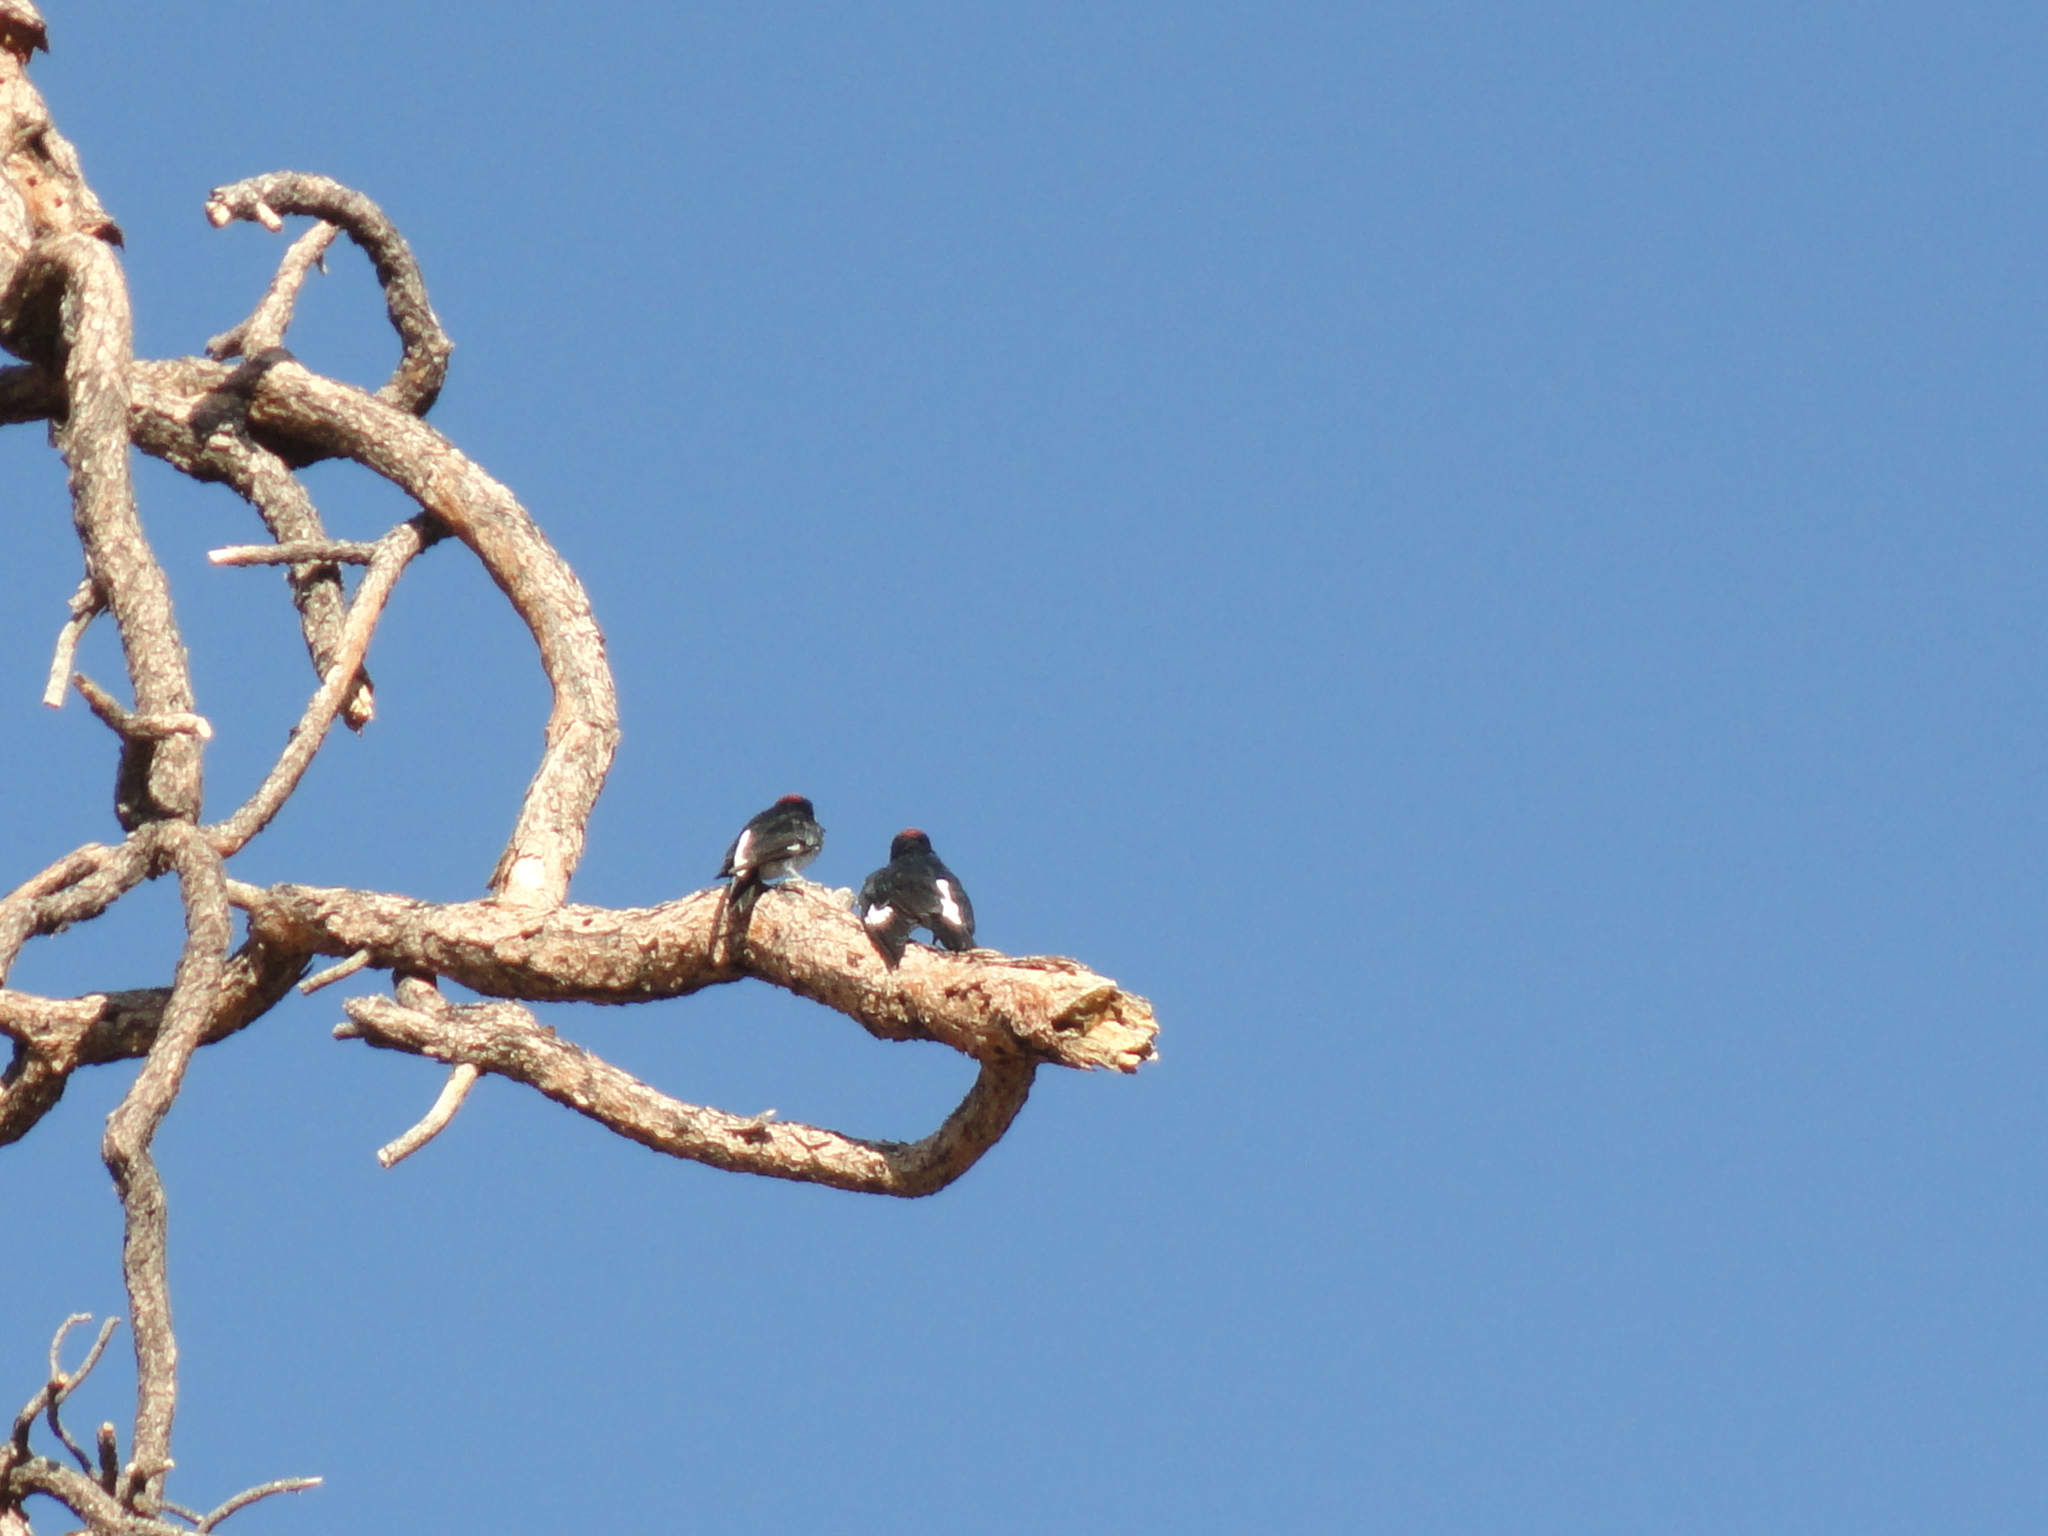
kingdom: Animalia
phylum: Chordata
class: Aves
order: Piciformes
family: Picidae
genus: Melanerpes
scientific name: Melanerpes formicivorus
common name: Acorn woodpecker
